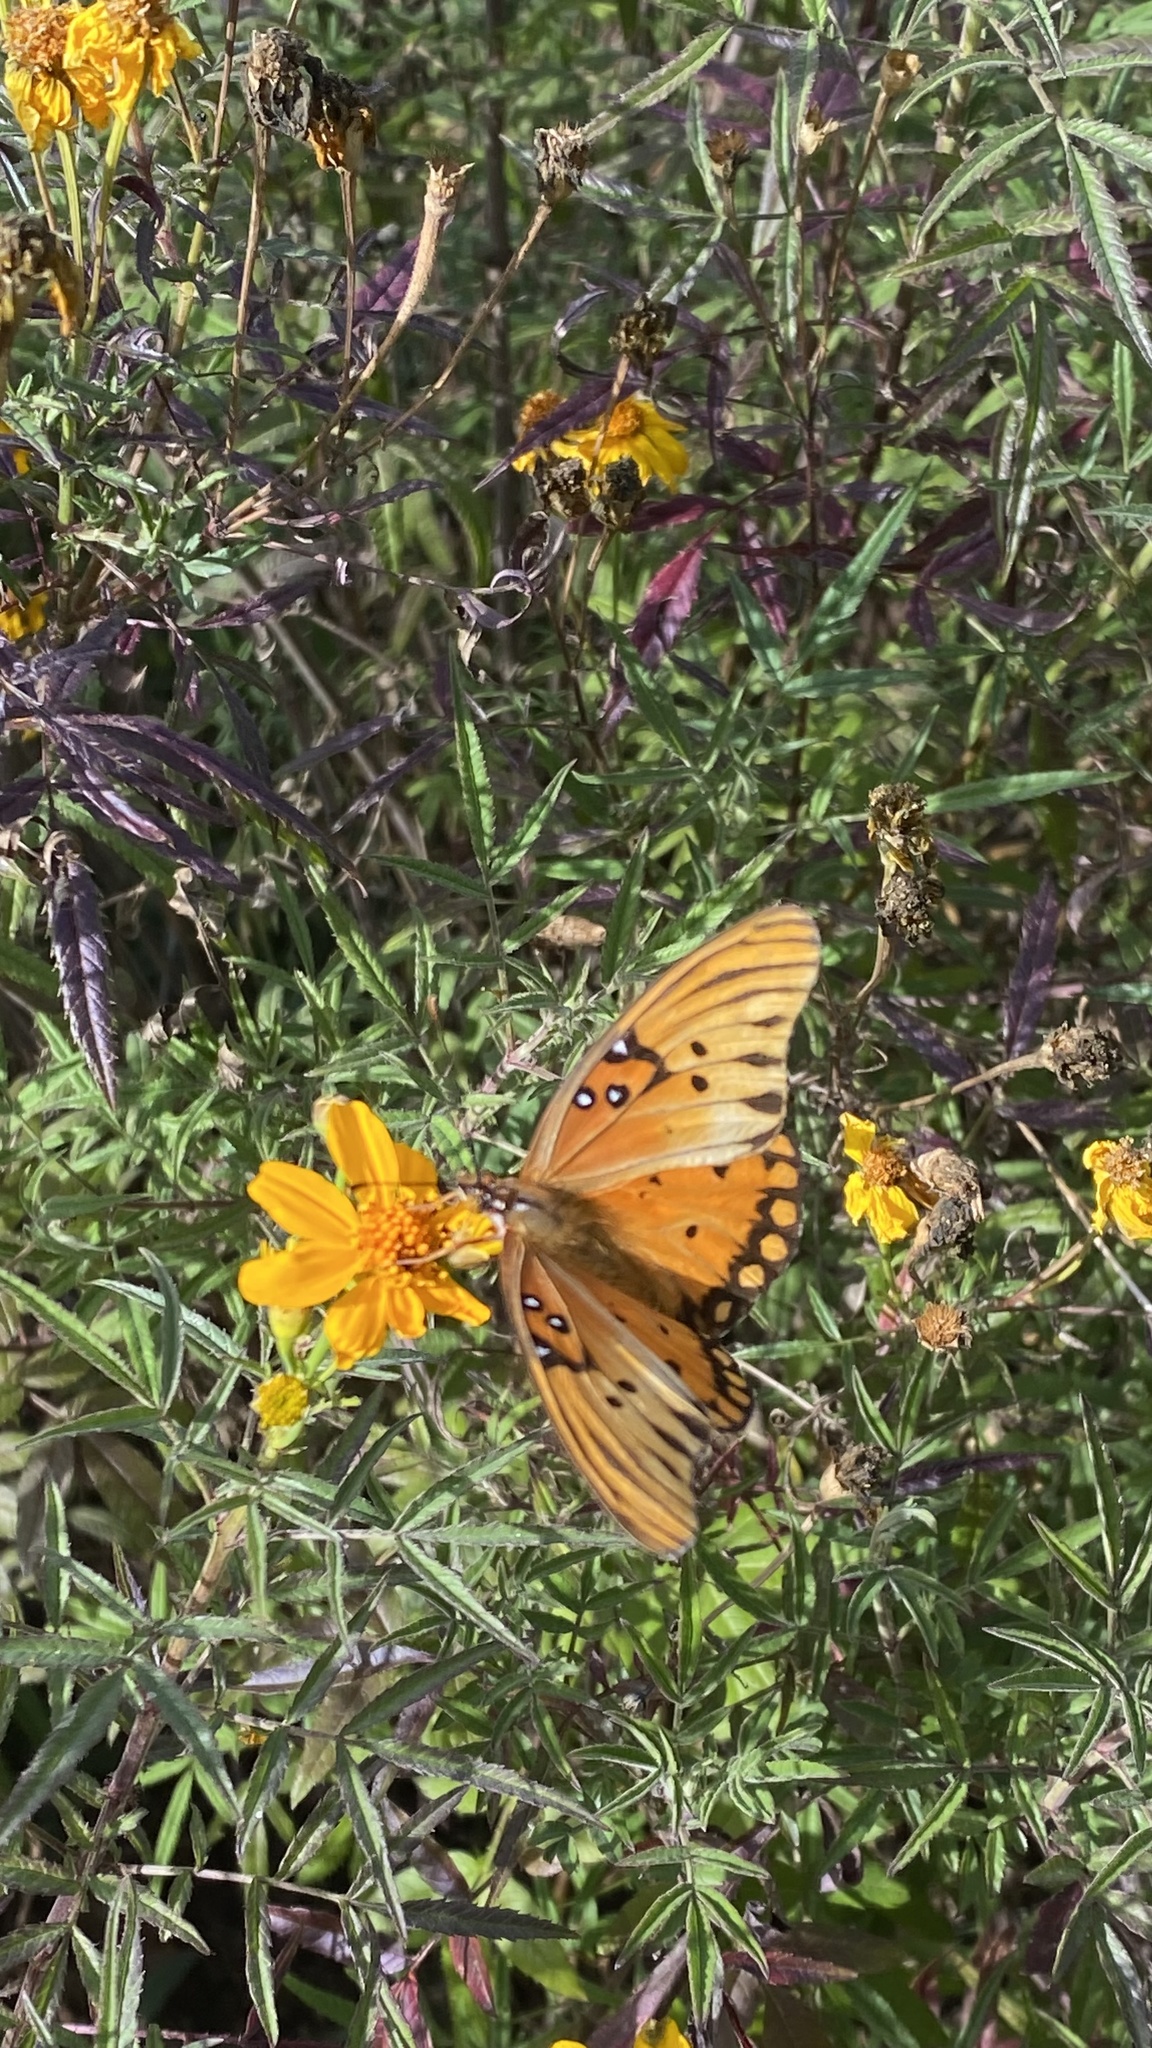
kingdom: Animalia
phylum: Arthropoda
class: Insecta
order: Lepidoptera
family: Nymphalidae
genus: Dione
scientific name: Dione vanillae
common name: Gulf fritillary
